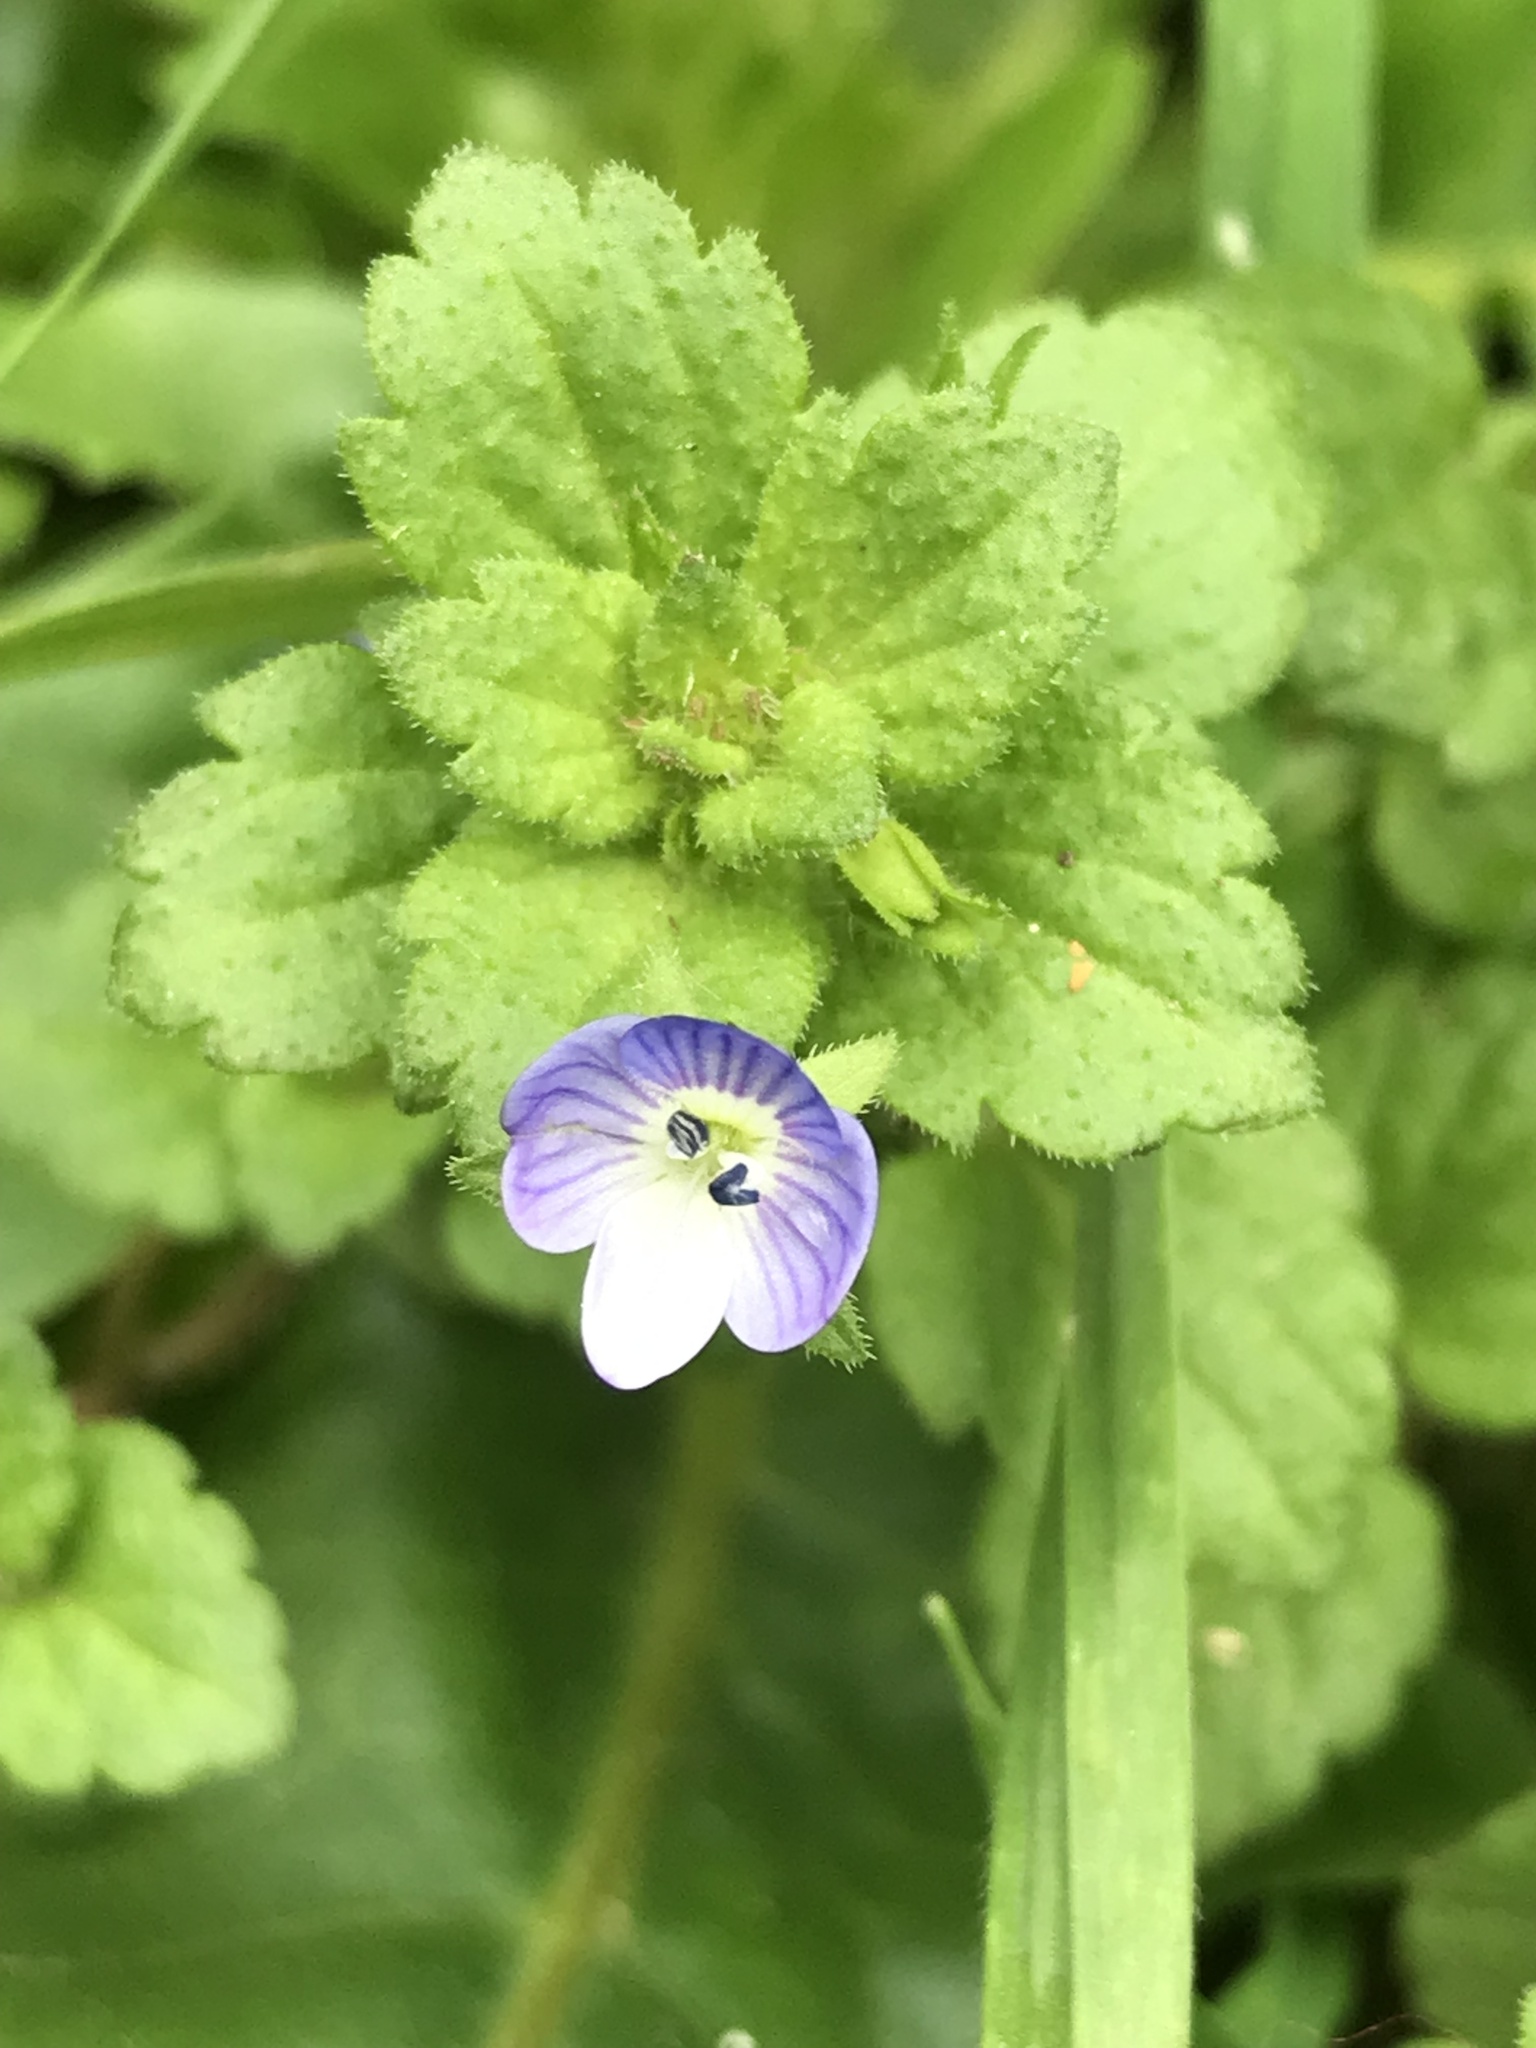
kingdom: Plantae
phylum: Tracheophyta
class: Magnoliopsida
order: Lamiales
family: Plantaginaceae
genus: Veronica
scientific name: Veronica persica
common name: Common field-speedwell
